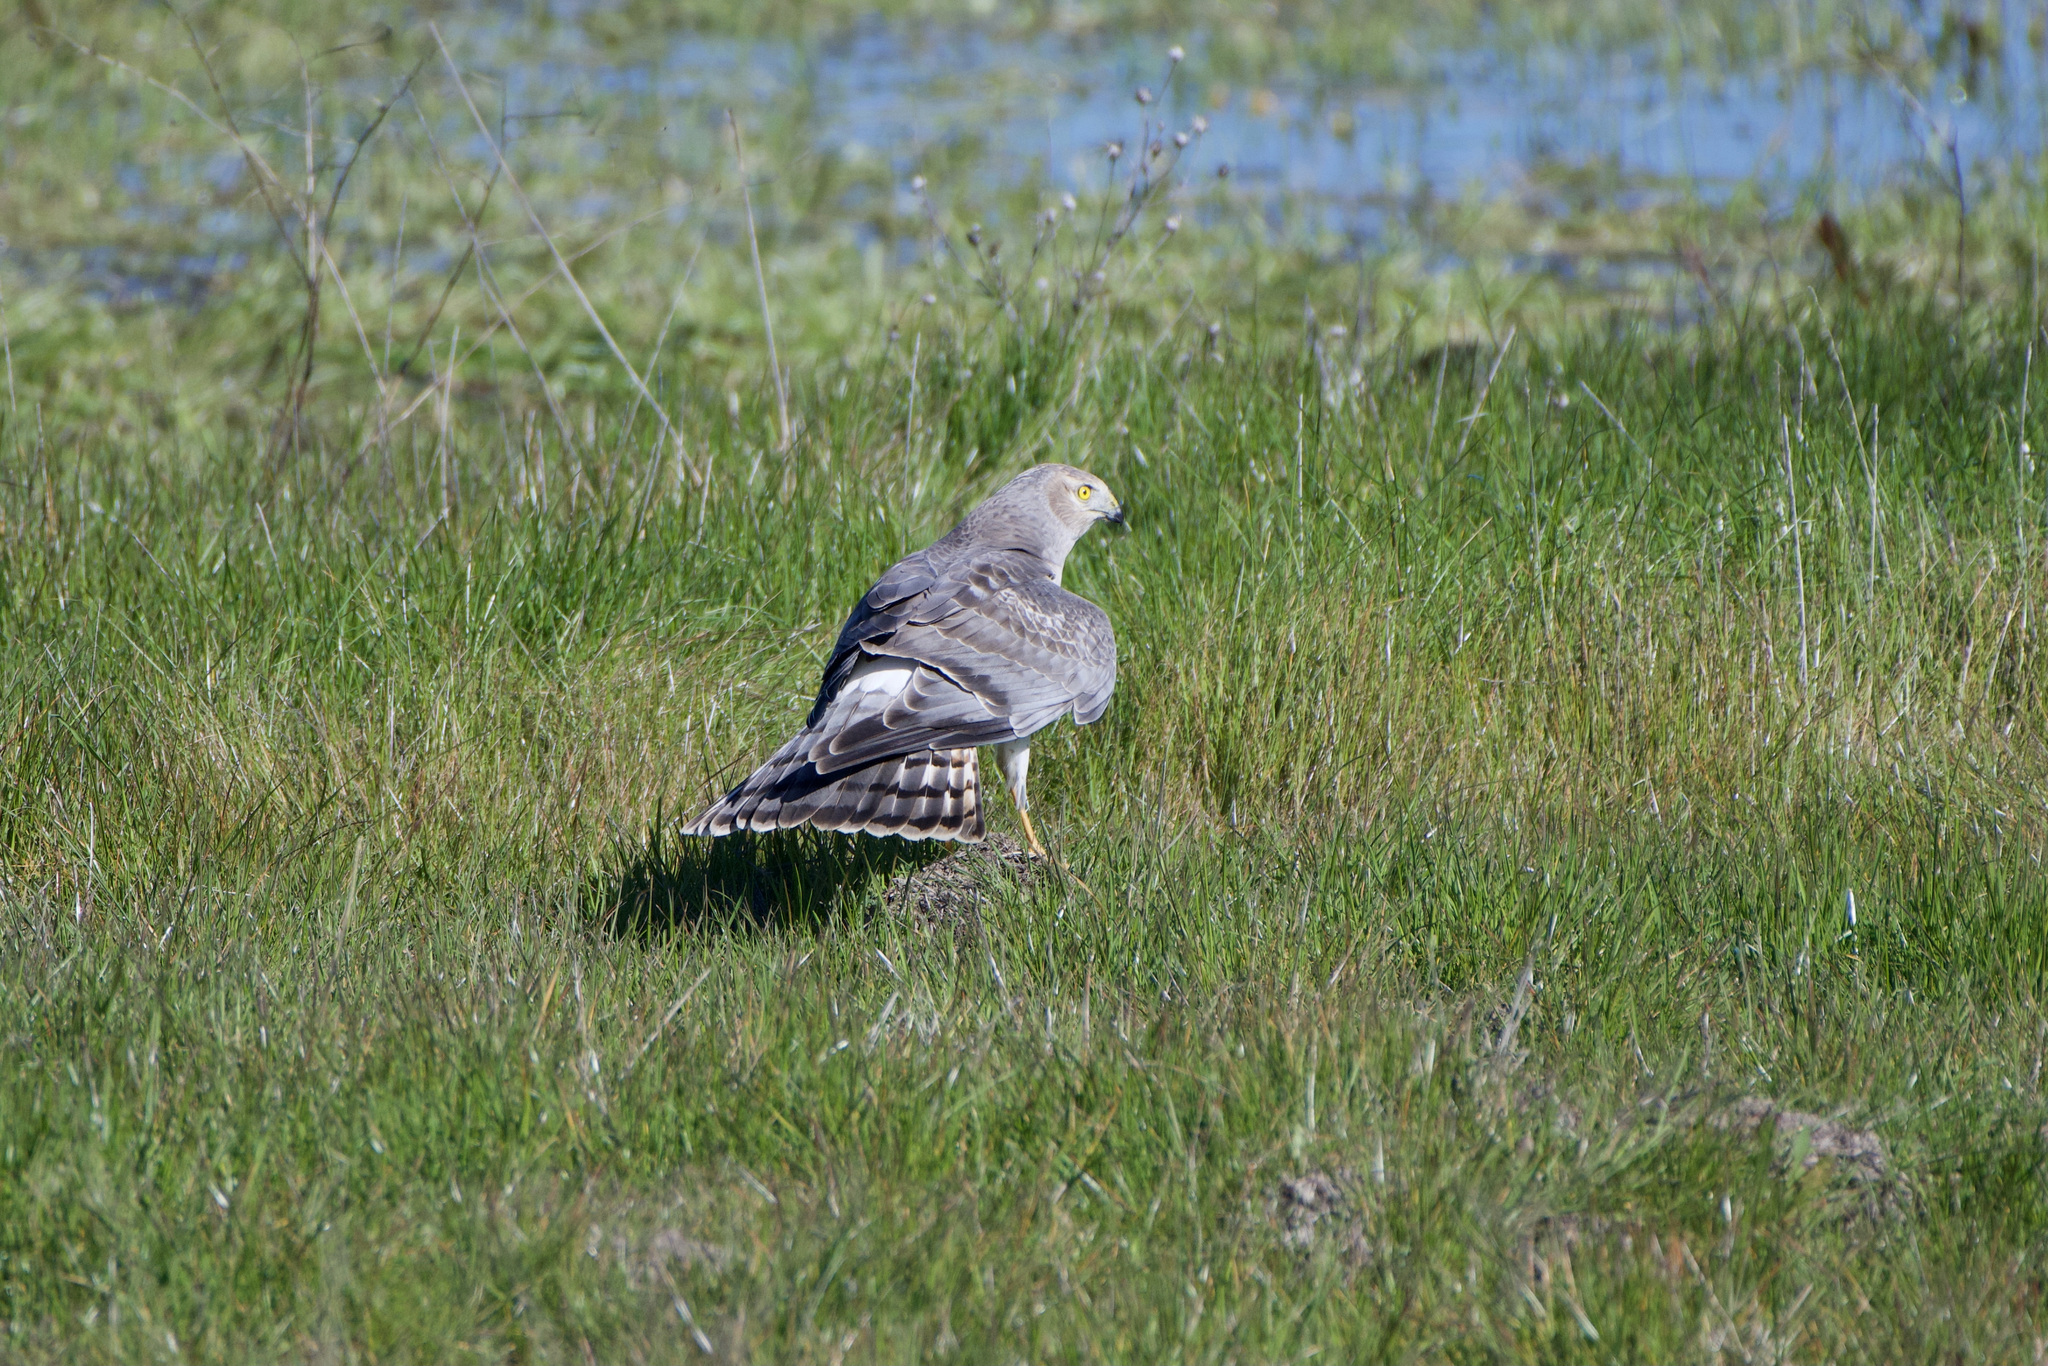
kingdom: Animalia
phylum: Chordata
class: Aves
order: Accipitriformes
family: Accipitridae
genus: Circus
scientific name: Circus cyaneus
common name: Hen harrier
